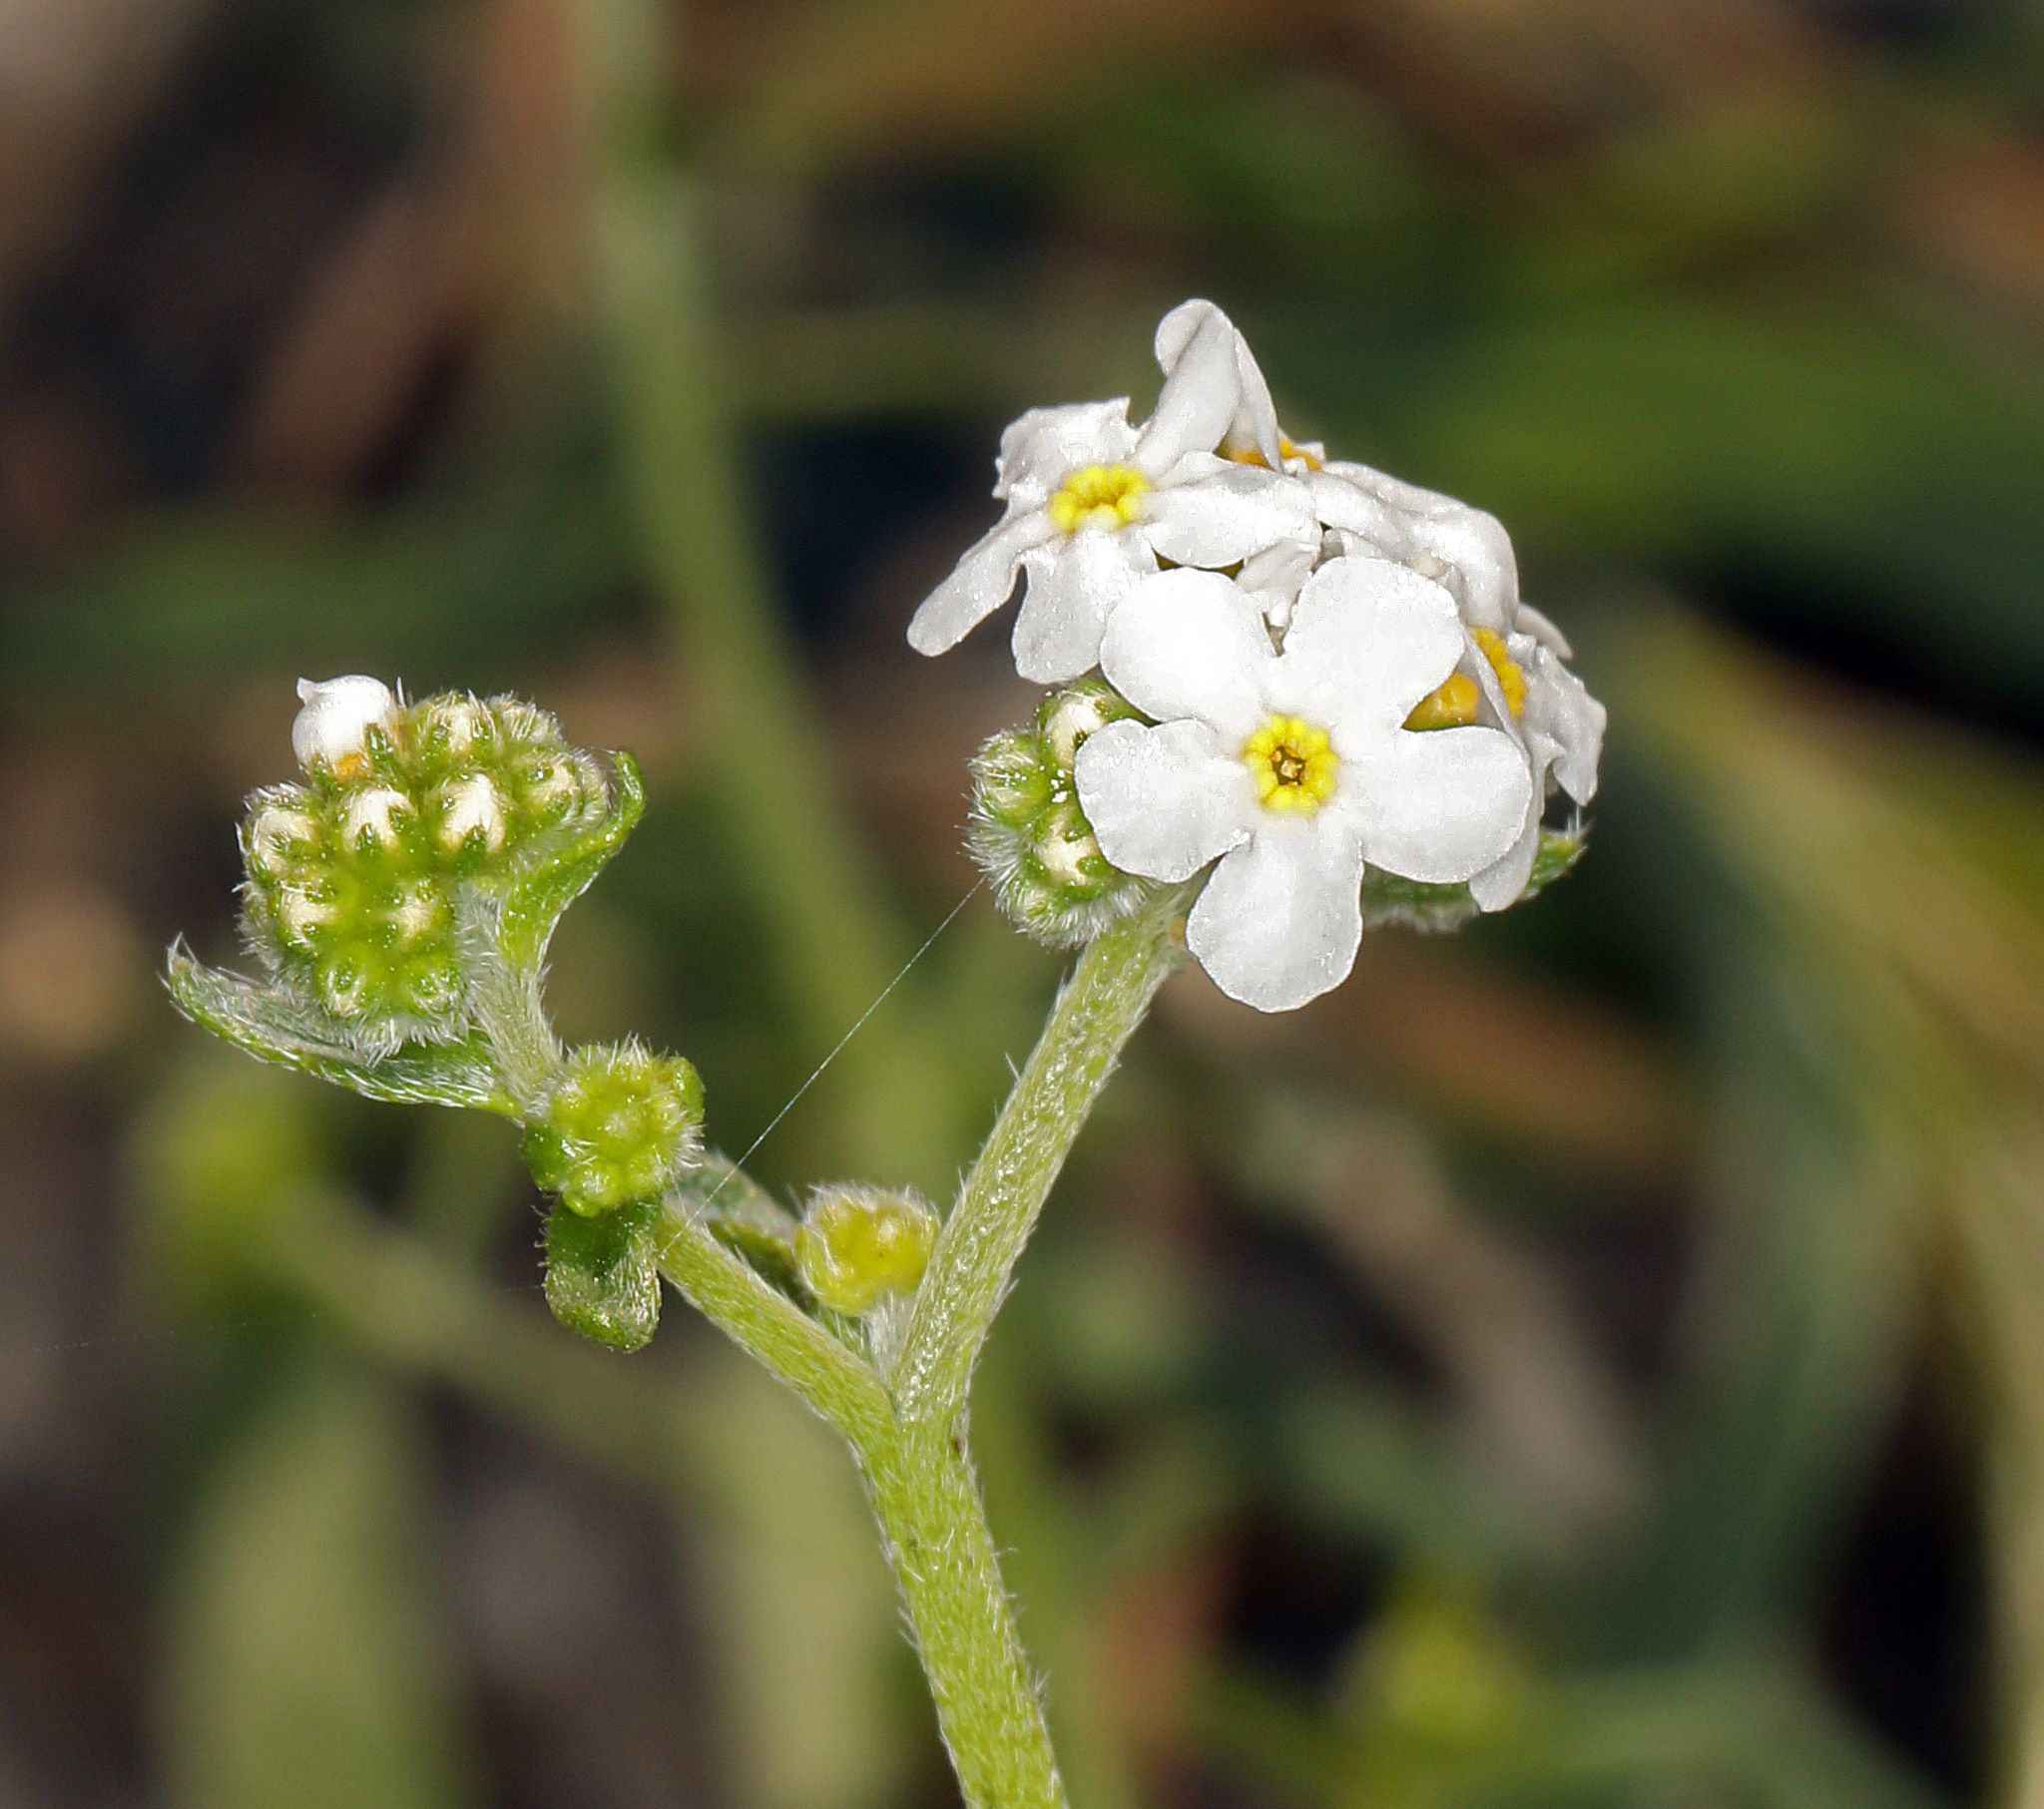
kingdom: Plantae
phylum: Tracheophyta
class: Magnoliopsida
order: Boraginales
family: Boraginaceae
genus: Cryptantha
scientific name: Cryptantha utahensis
